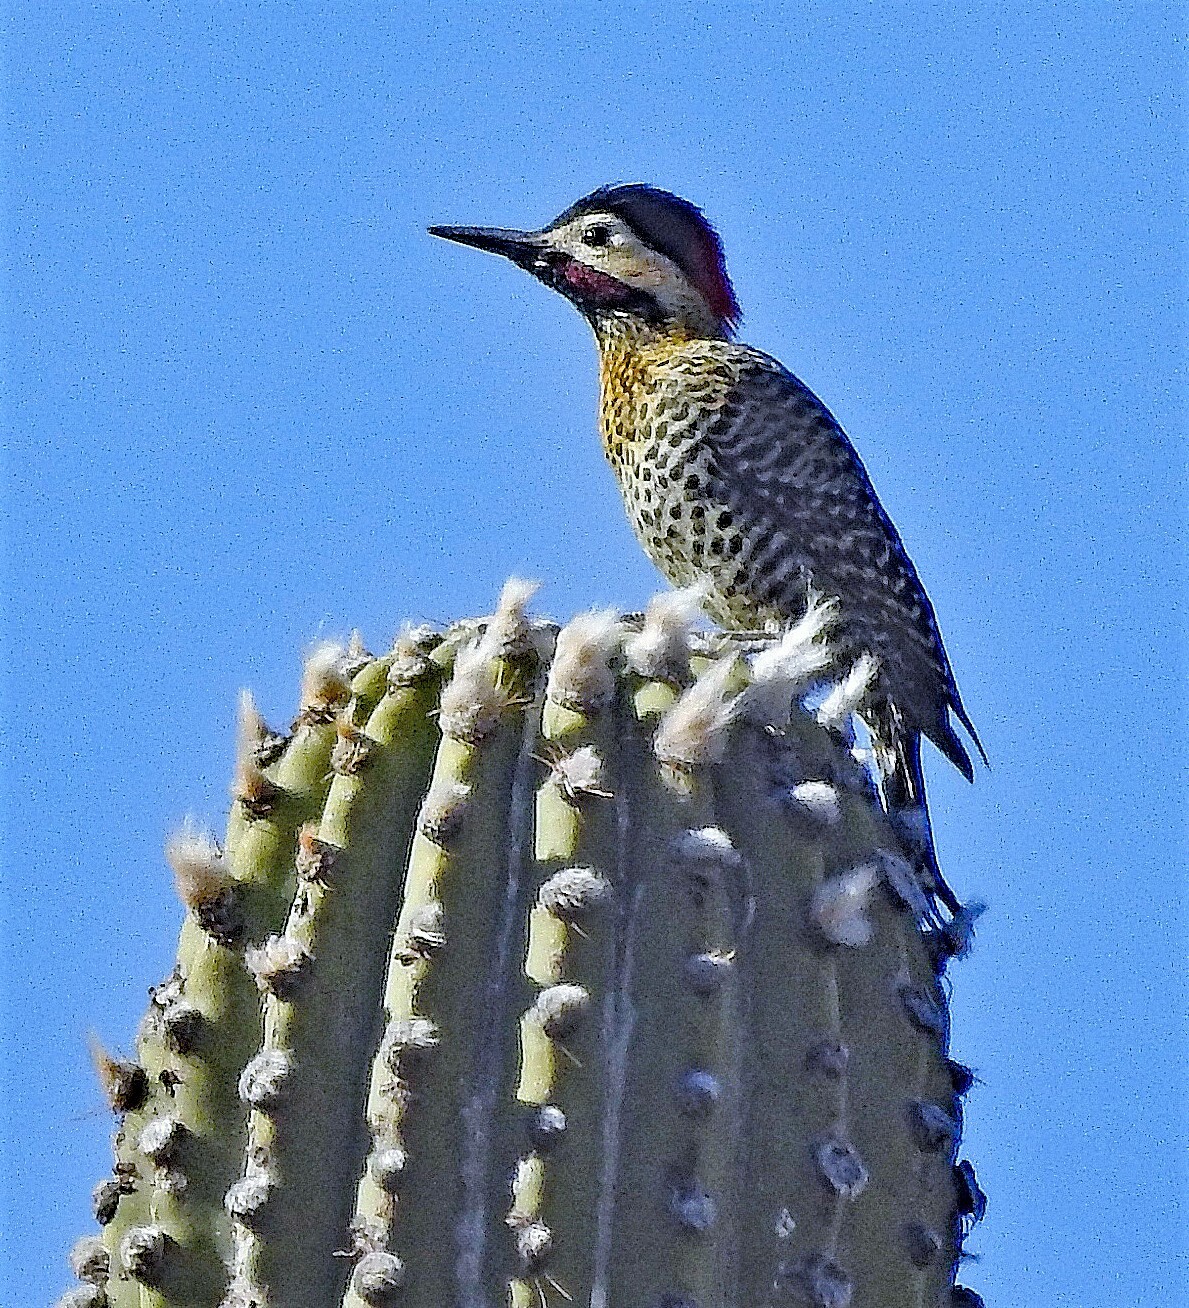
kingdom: Animalia
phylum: Chordata
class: Aves
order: Piciformes
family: Picidae
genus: Colaptes
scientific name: Colaptes melanochloros
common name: Green-barred woodpecker
